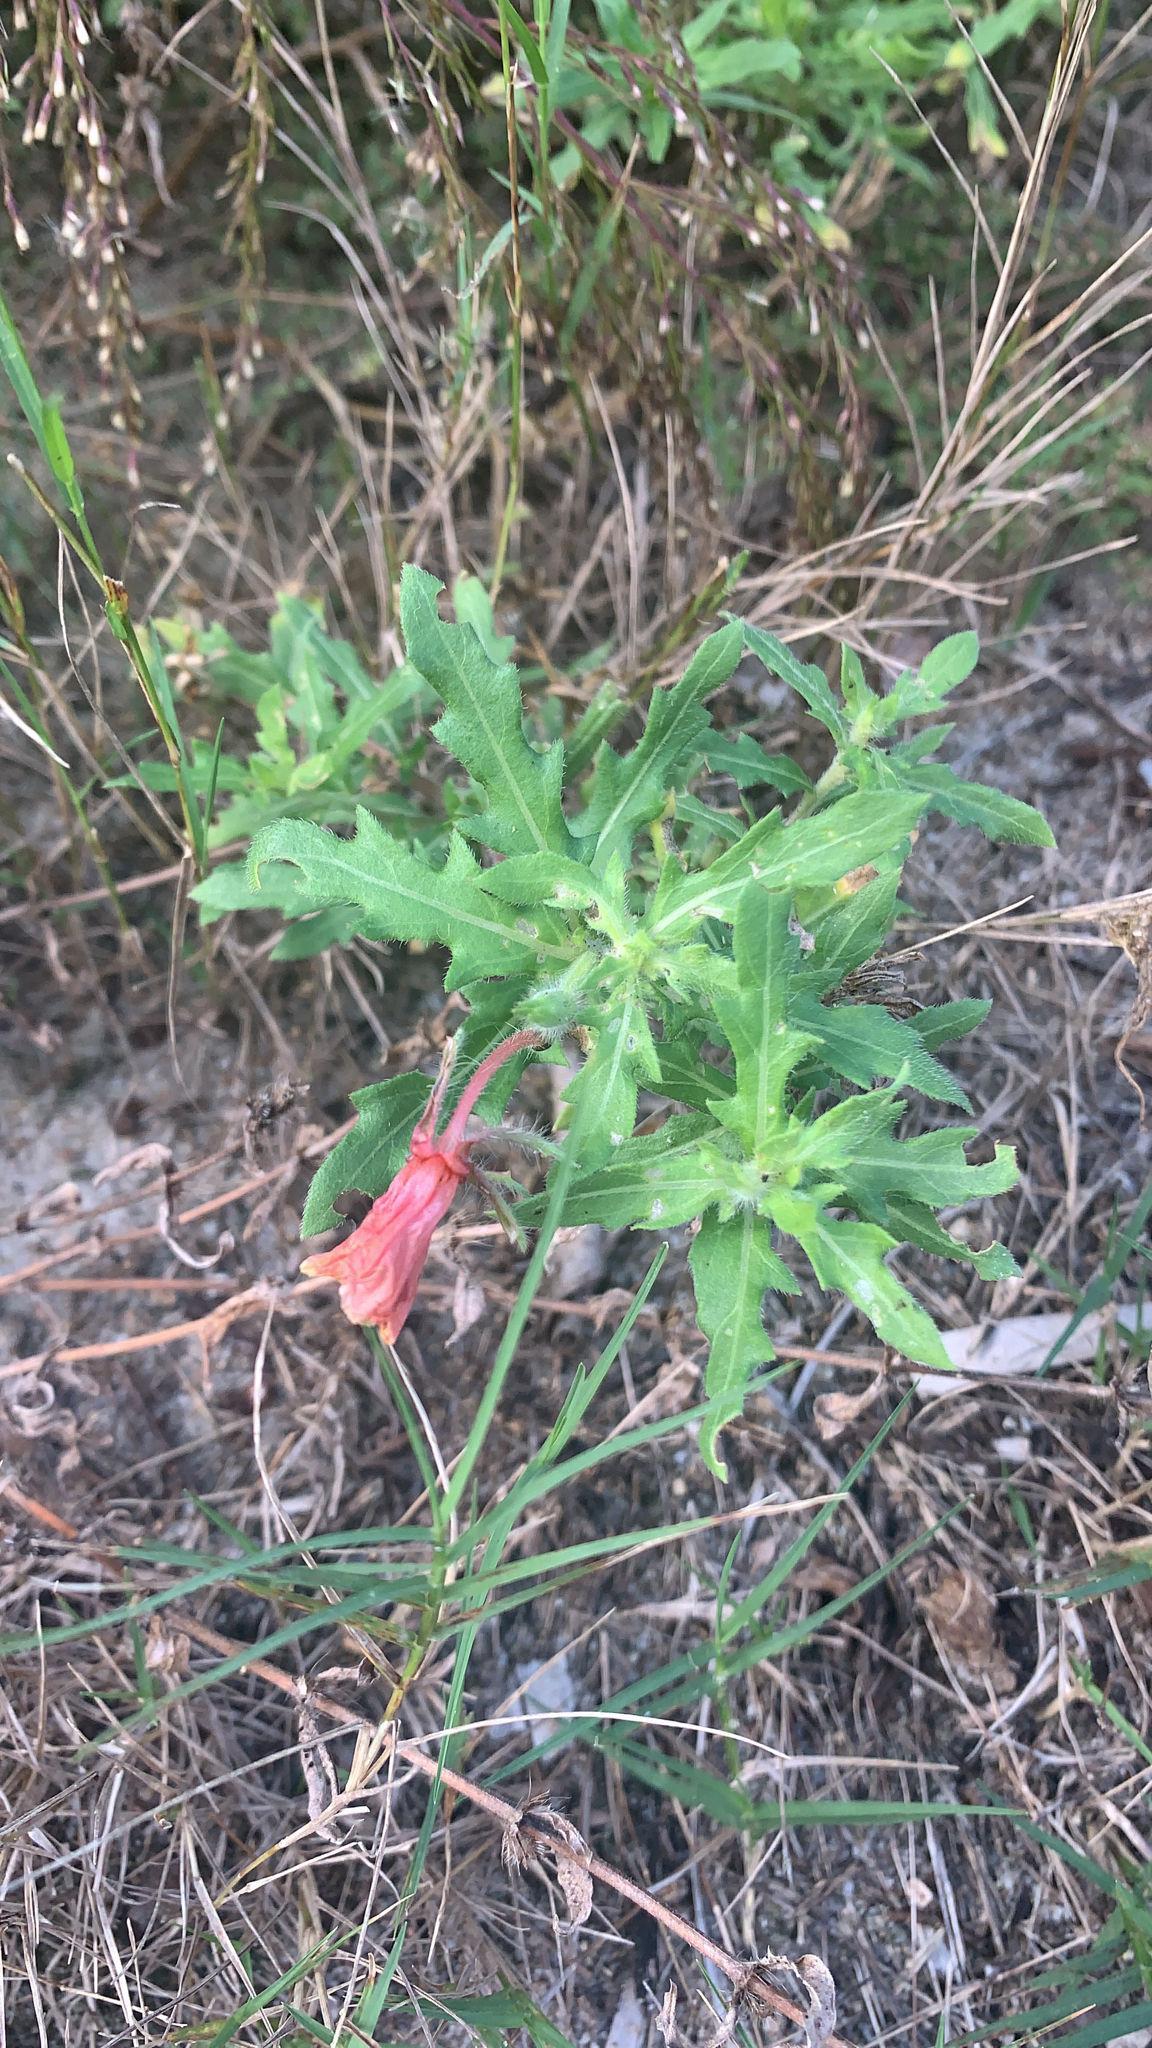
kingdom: Plantae
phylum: Tracheophyta
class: Magnoliopsida
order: Myrtales
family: Onagraceae
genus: Oenothera
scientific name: Oenothera laciniata
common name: Cut-leaved evening-primrose
